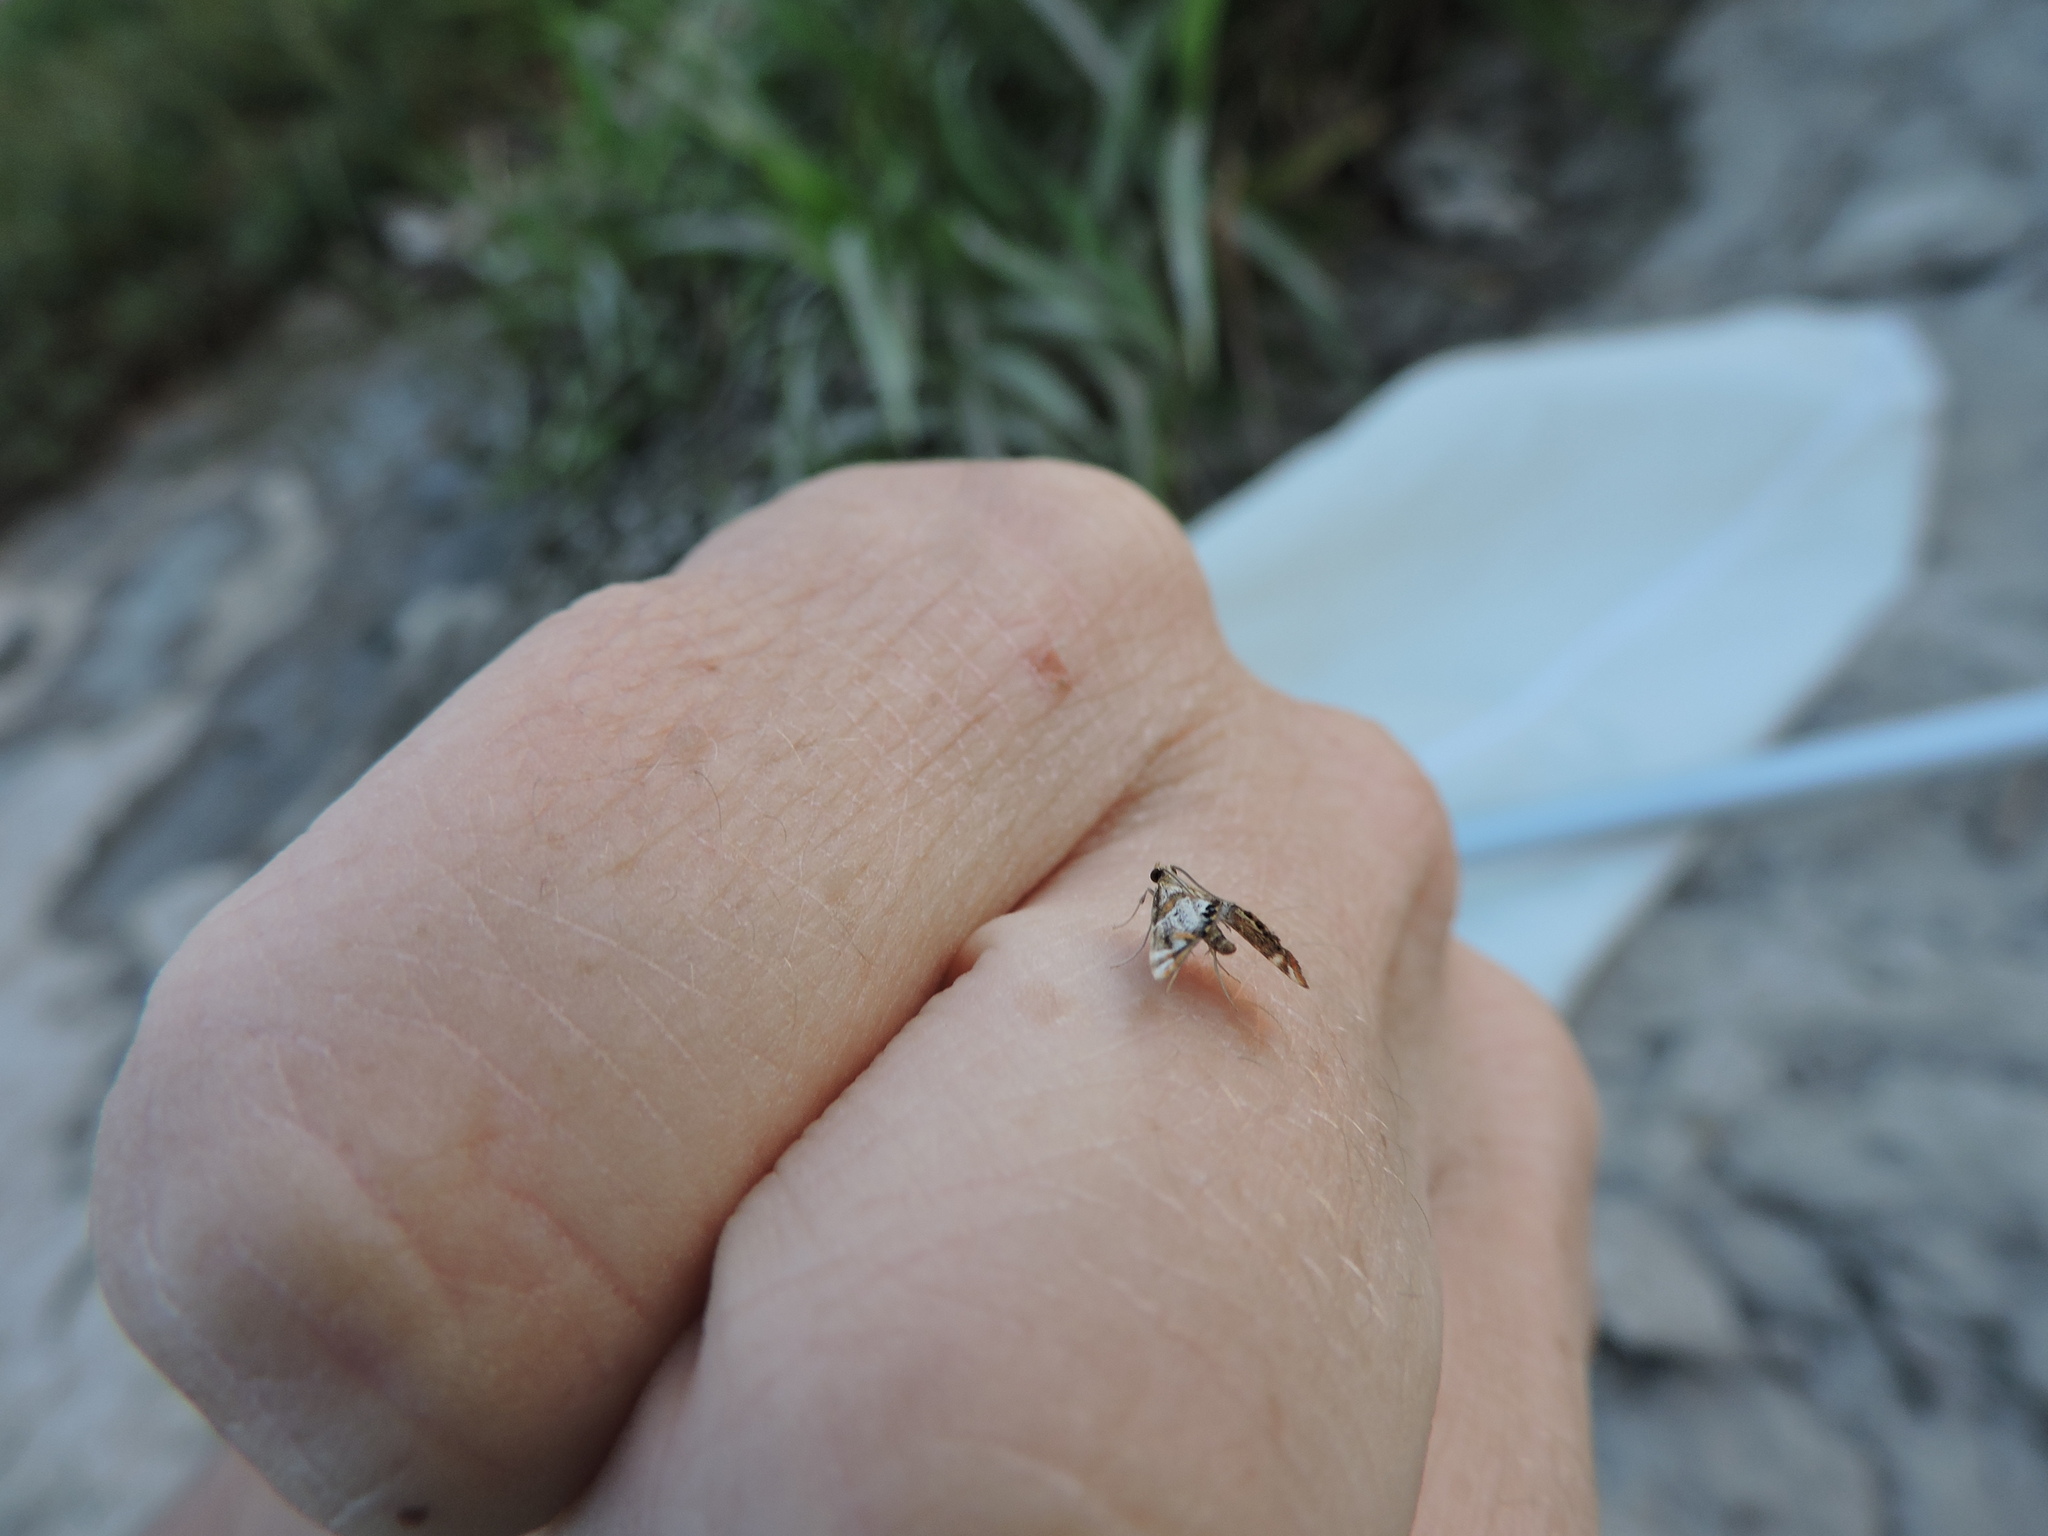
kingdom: Animalia
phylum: Arthropoda
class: Insecta
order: Lepidoptera
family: Crambidae
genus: Petrophila
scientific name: Petrophila jaliscalis
